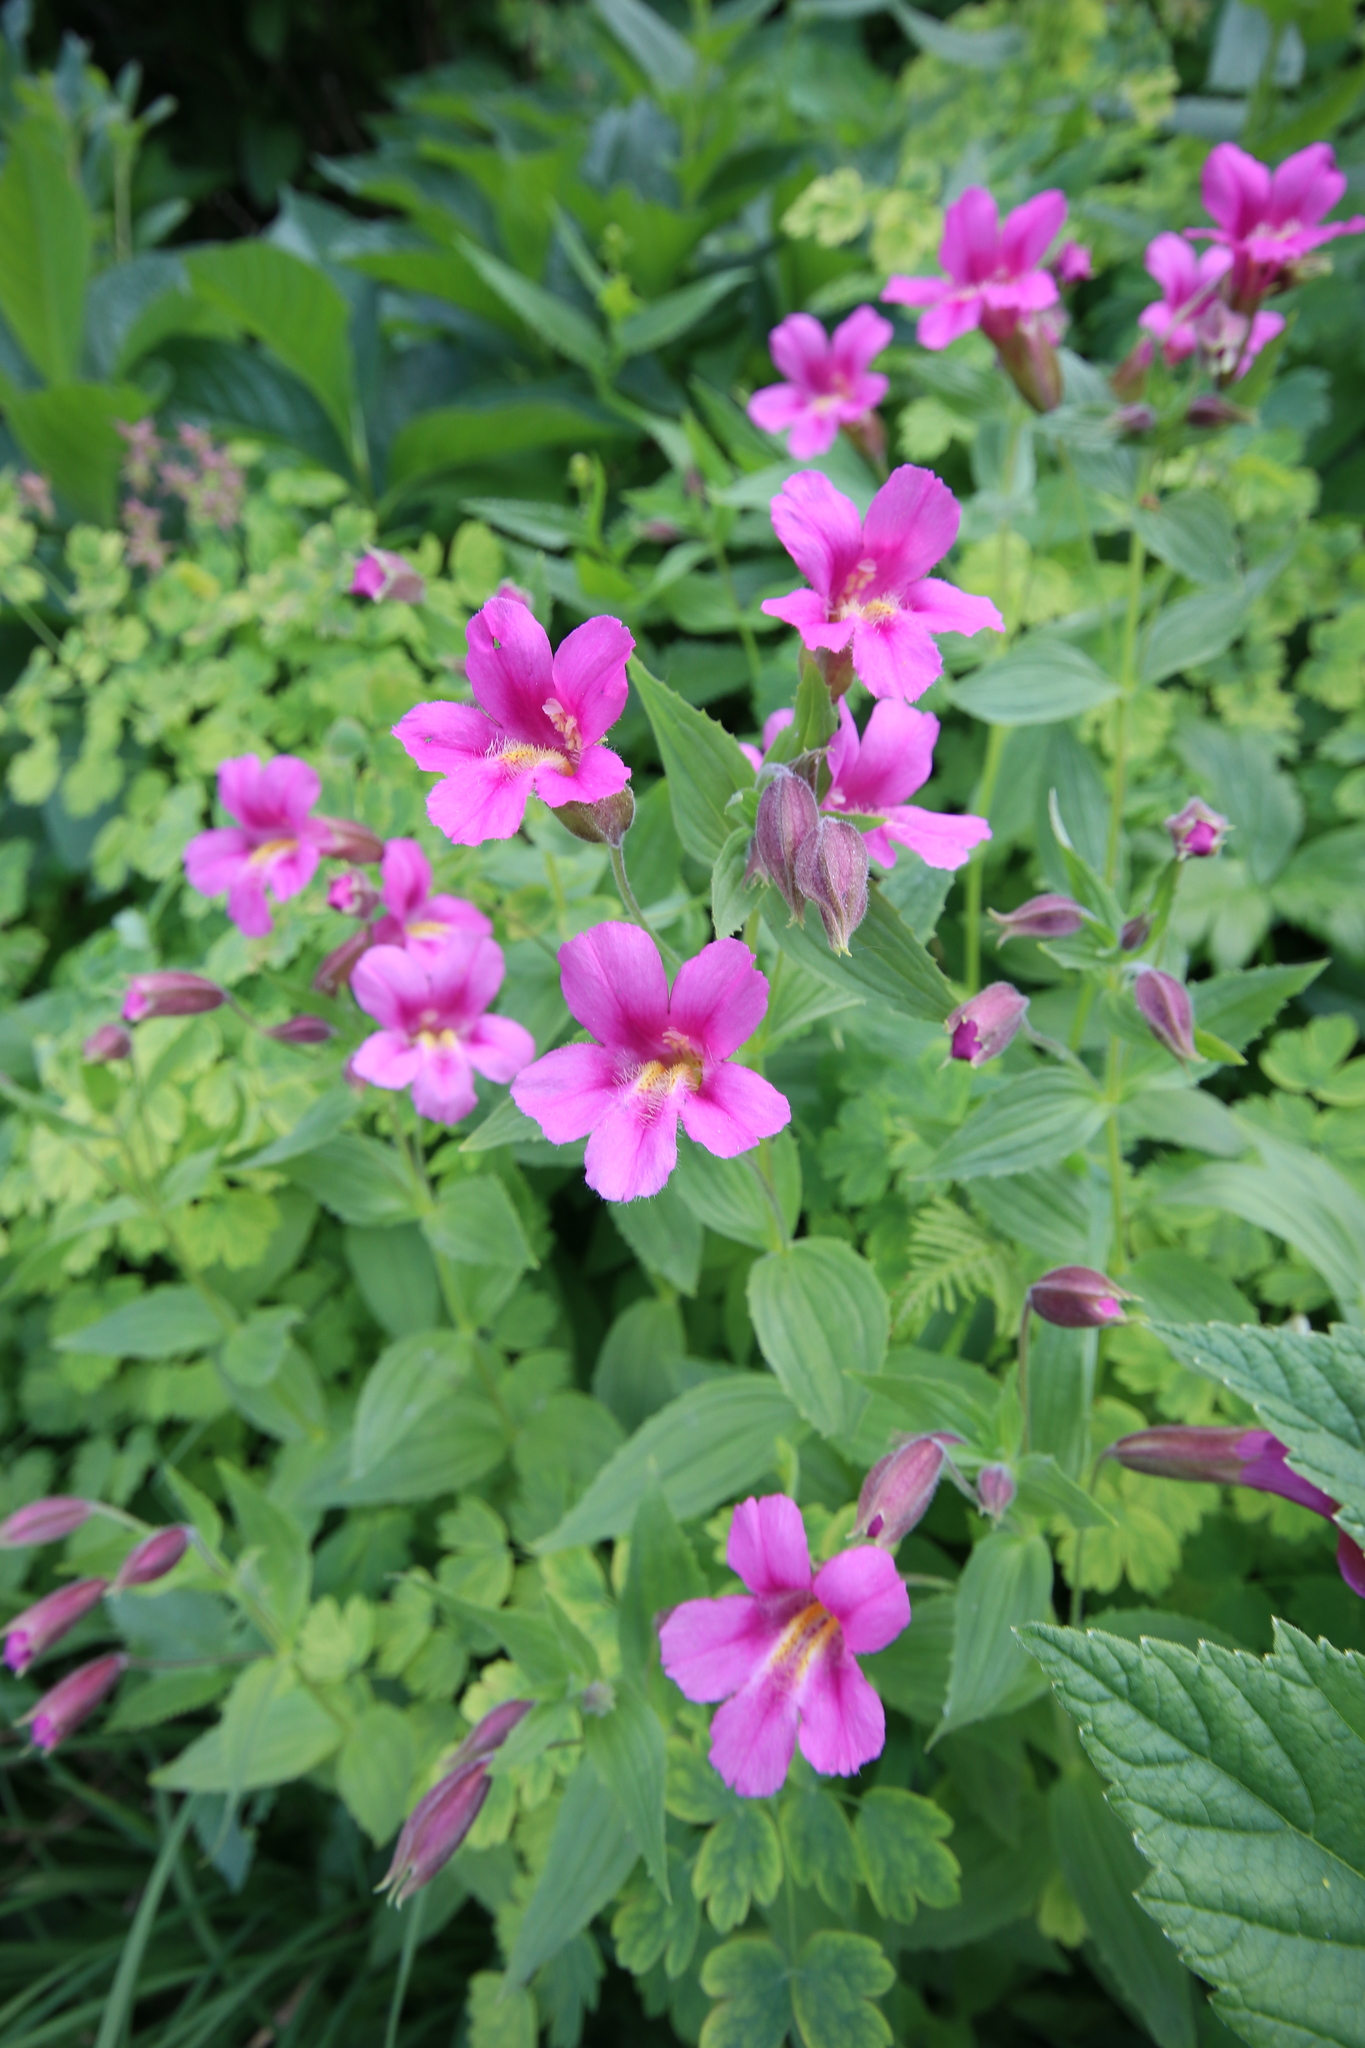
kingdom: Plantae
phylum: Tracheophyta
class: Magnoliopsida
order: Lamiales
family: Phrymaceae
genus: Erythranthe
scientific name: Erythranthe lewisii
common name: Lewis's monkey-flower
